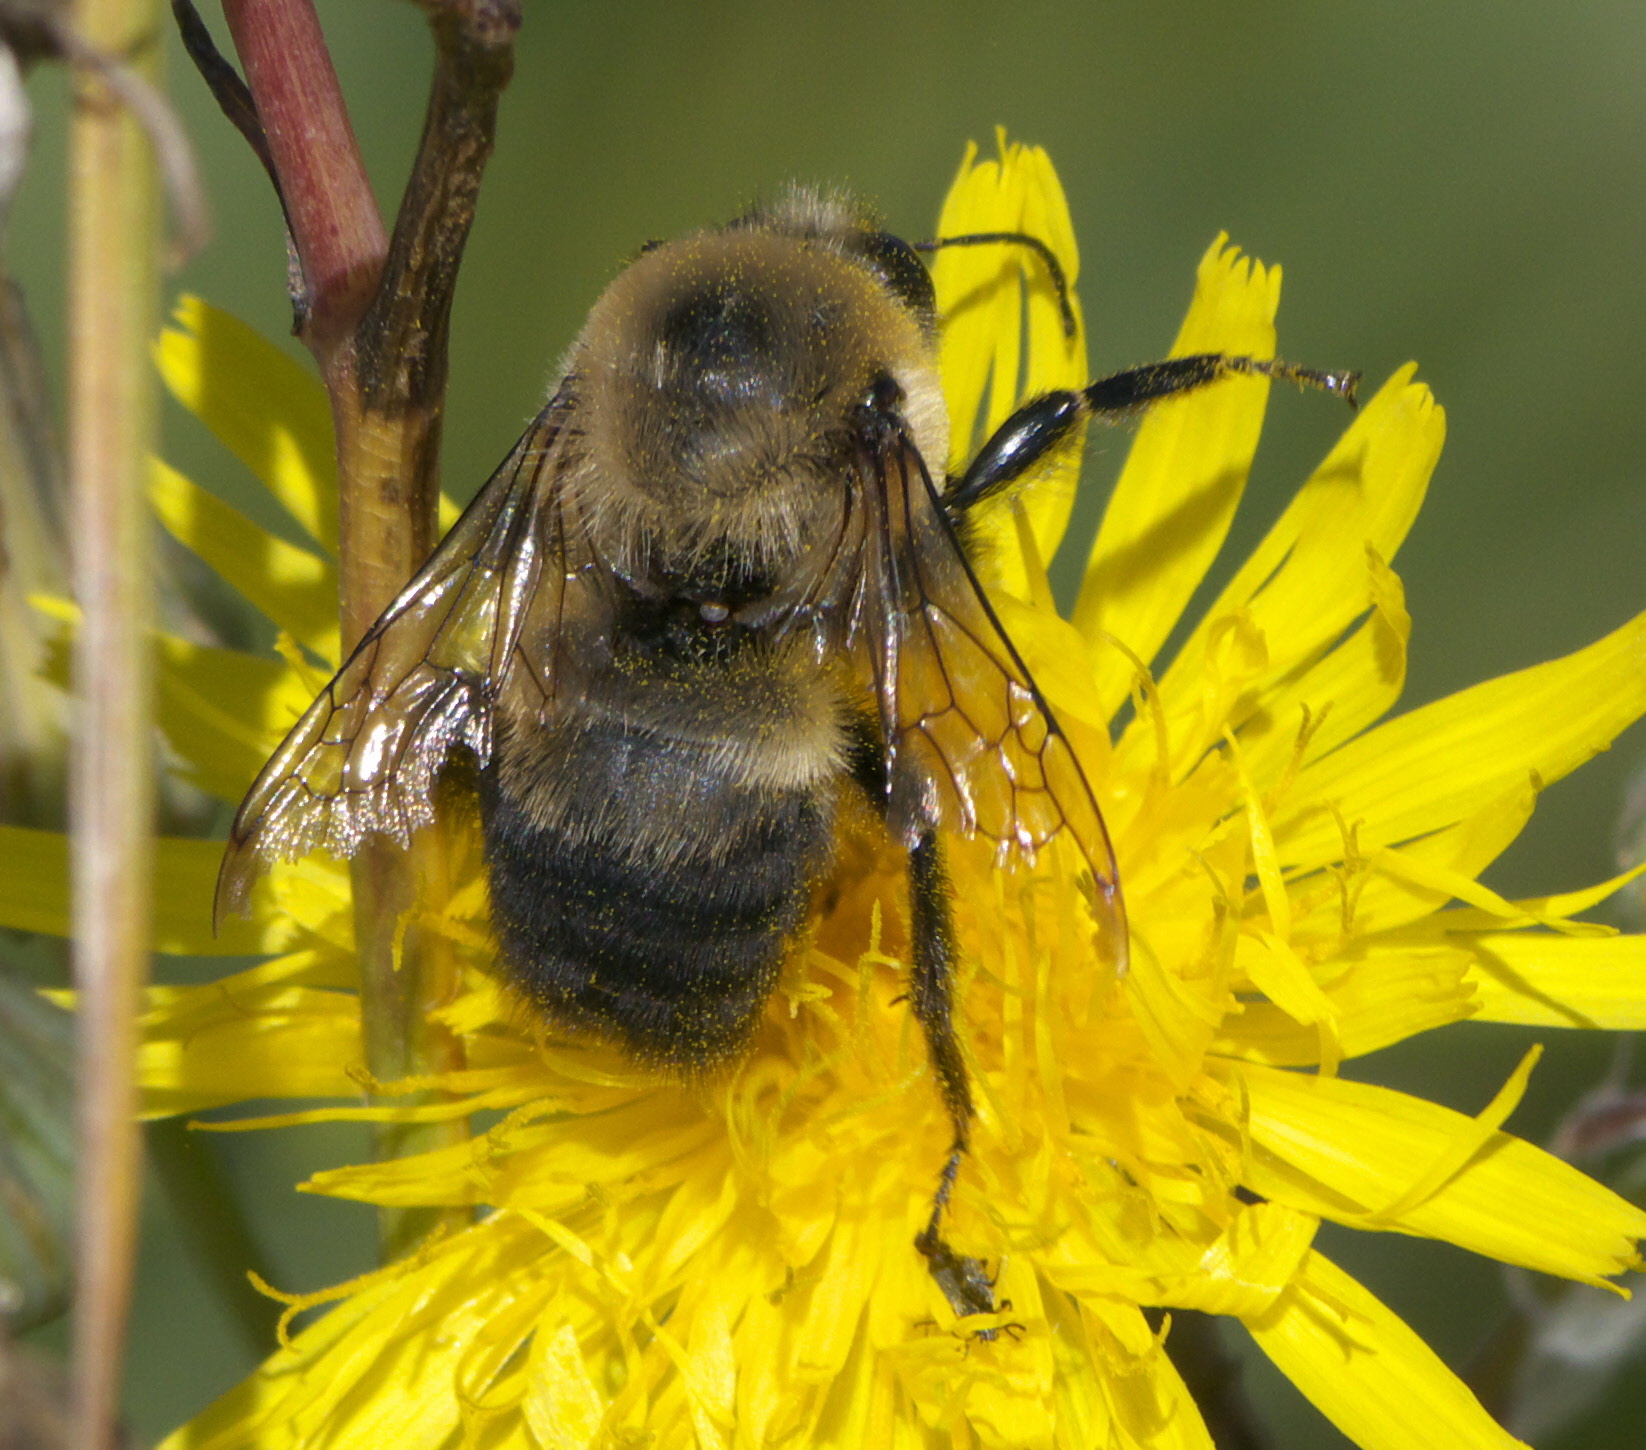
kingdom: Animalia
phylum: Arthropoda
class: Insecta
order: Hymenoptera
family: Apidae
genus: Bombus
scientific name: Bombus griseocollis
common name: Brown-belted bumble bee
